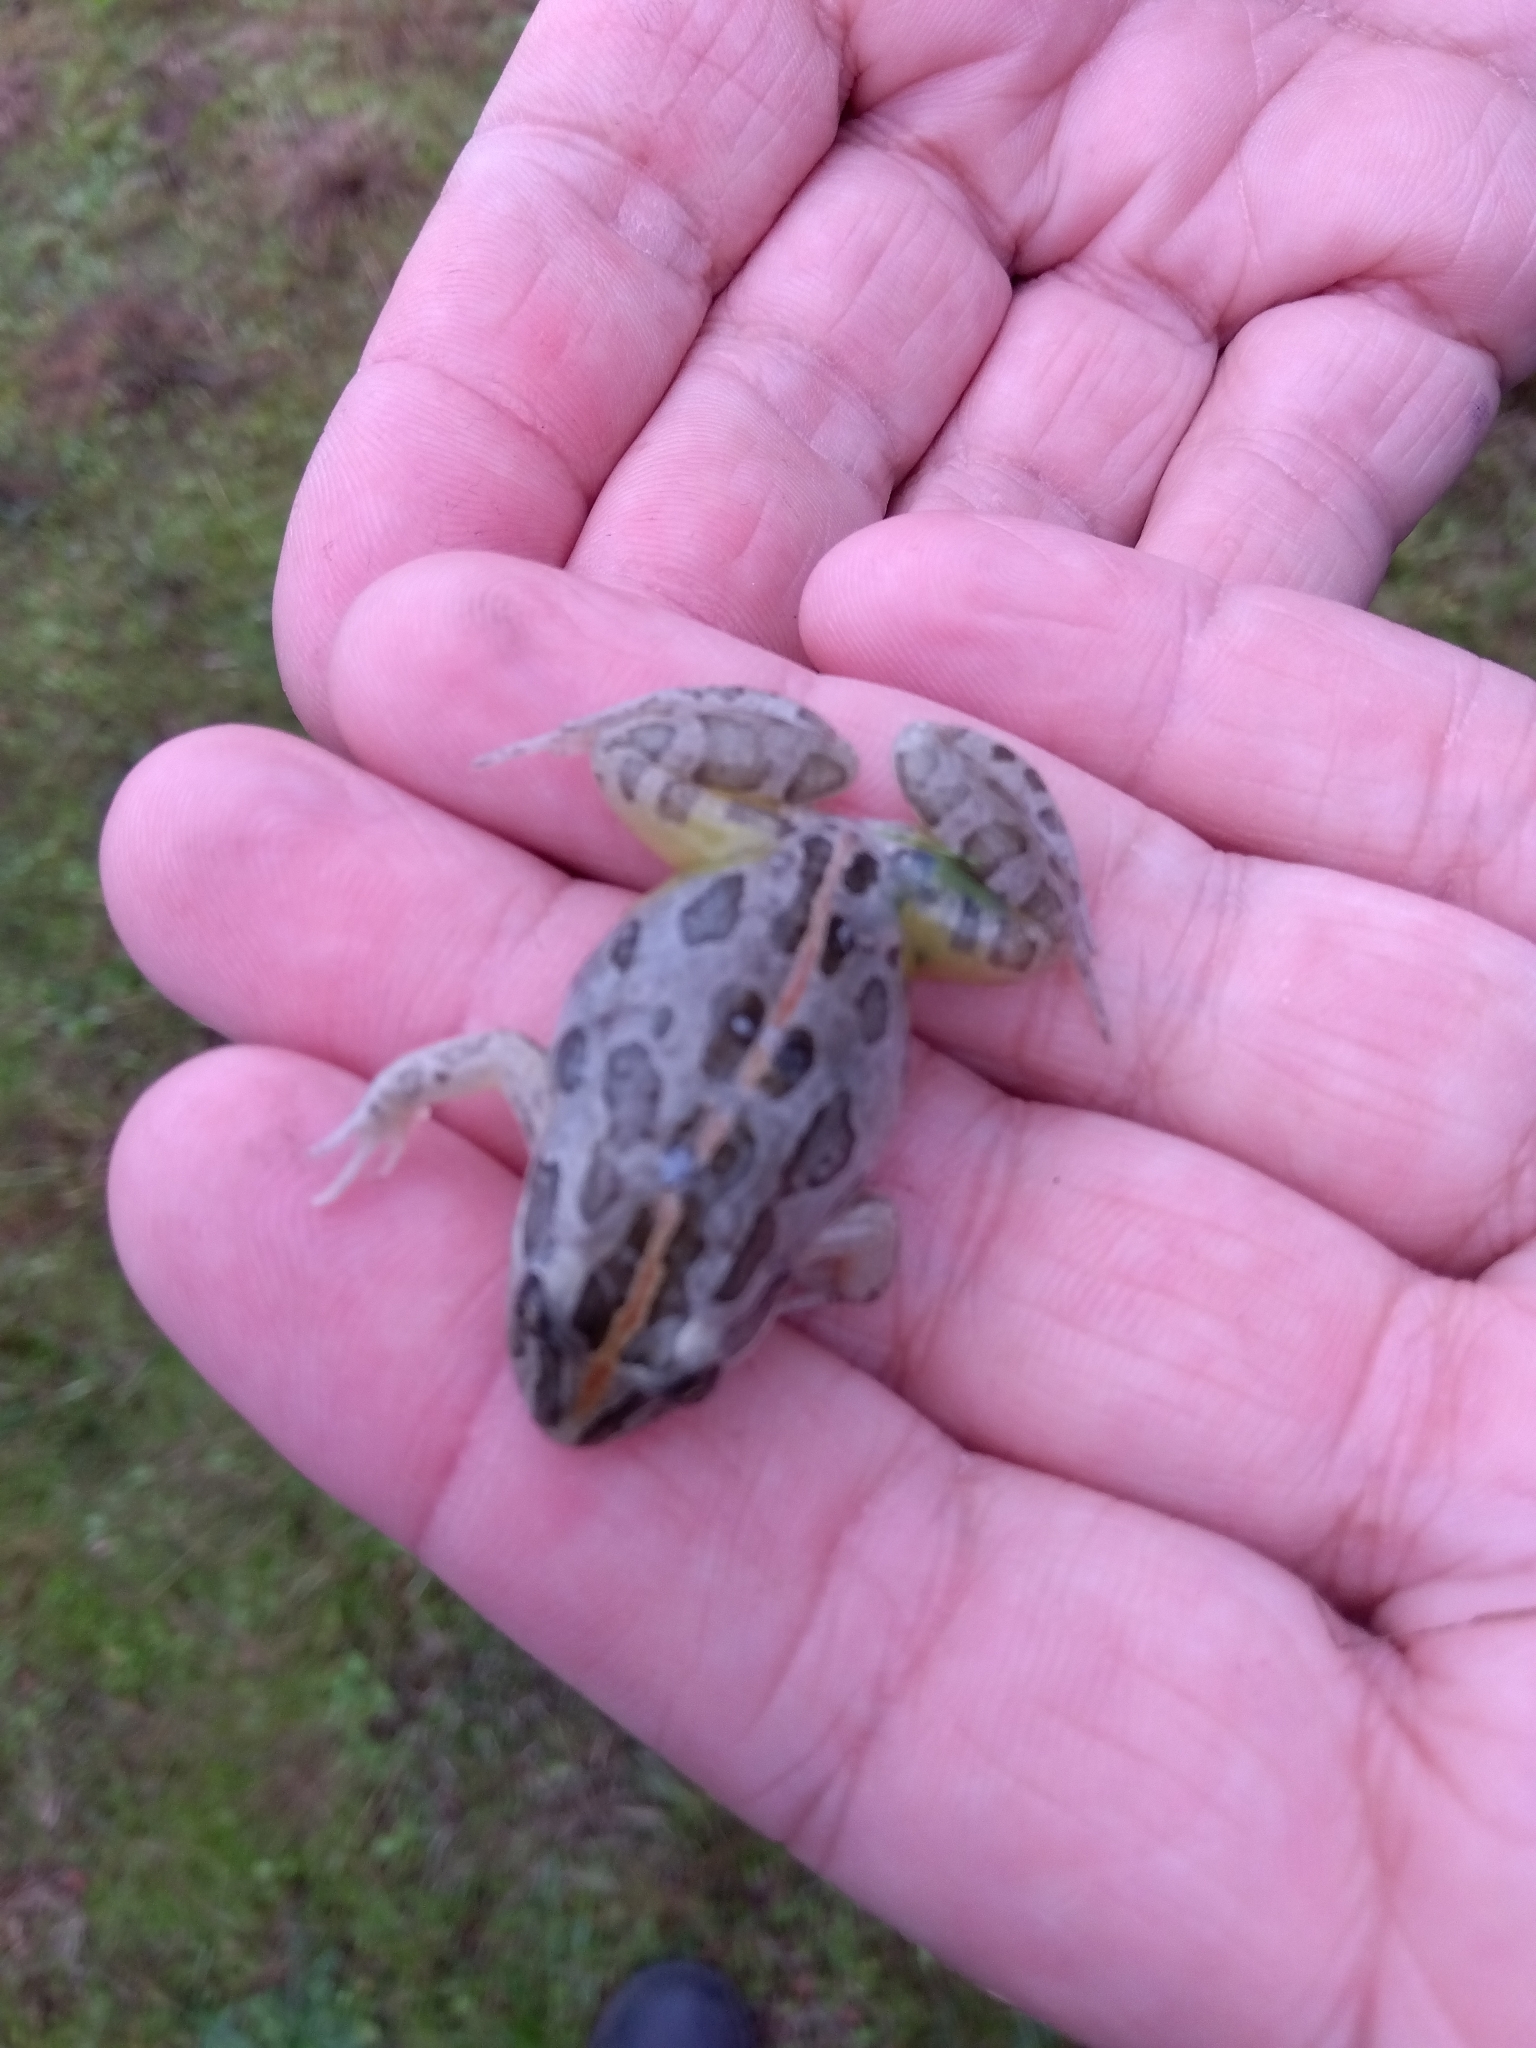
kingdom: Animalia
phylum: Chordata
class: Amphibia
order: Anura
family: Limnodynastidae
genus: Limnodynastes
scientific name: Limnodynastes tasmaniensis
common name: Spotted marsh frog
